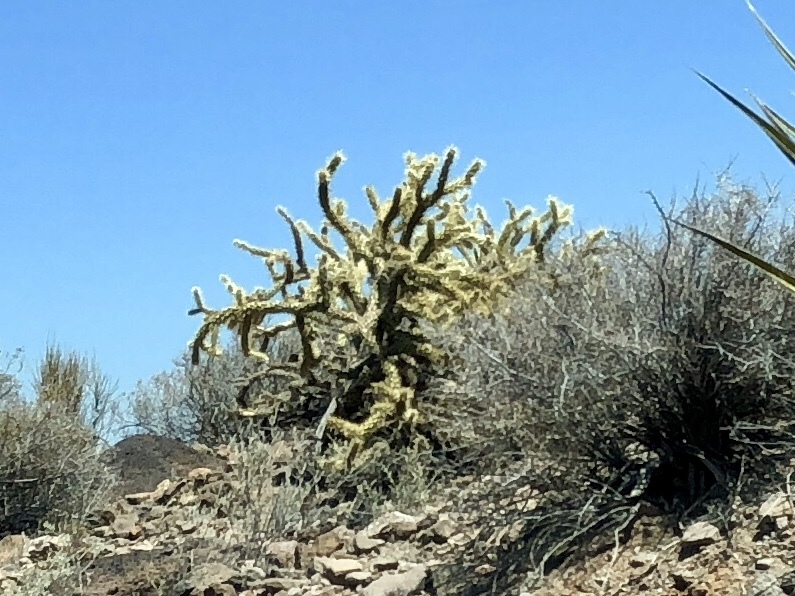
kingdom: Plantae
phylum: Tracheophyta
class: Magnoliopsida
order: Caryophyllales
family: Cactaceae
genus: Cylindropuntia
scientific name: Cylindropuntia acanthocarpa
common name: Buckhorn cholla
